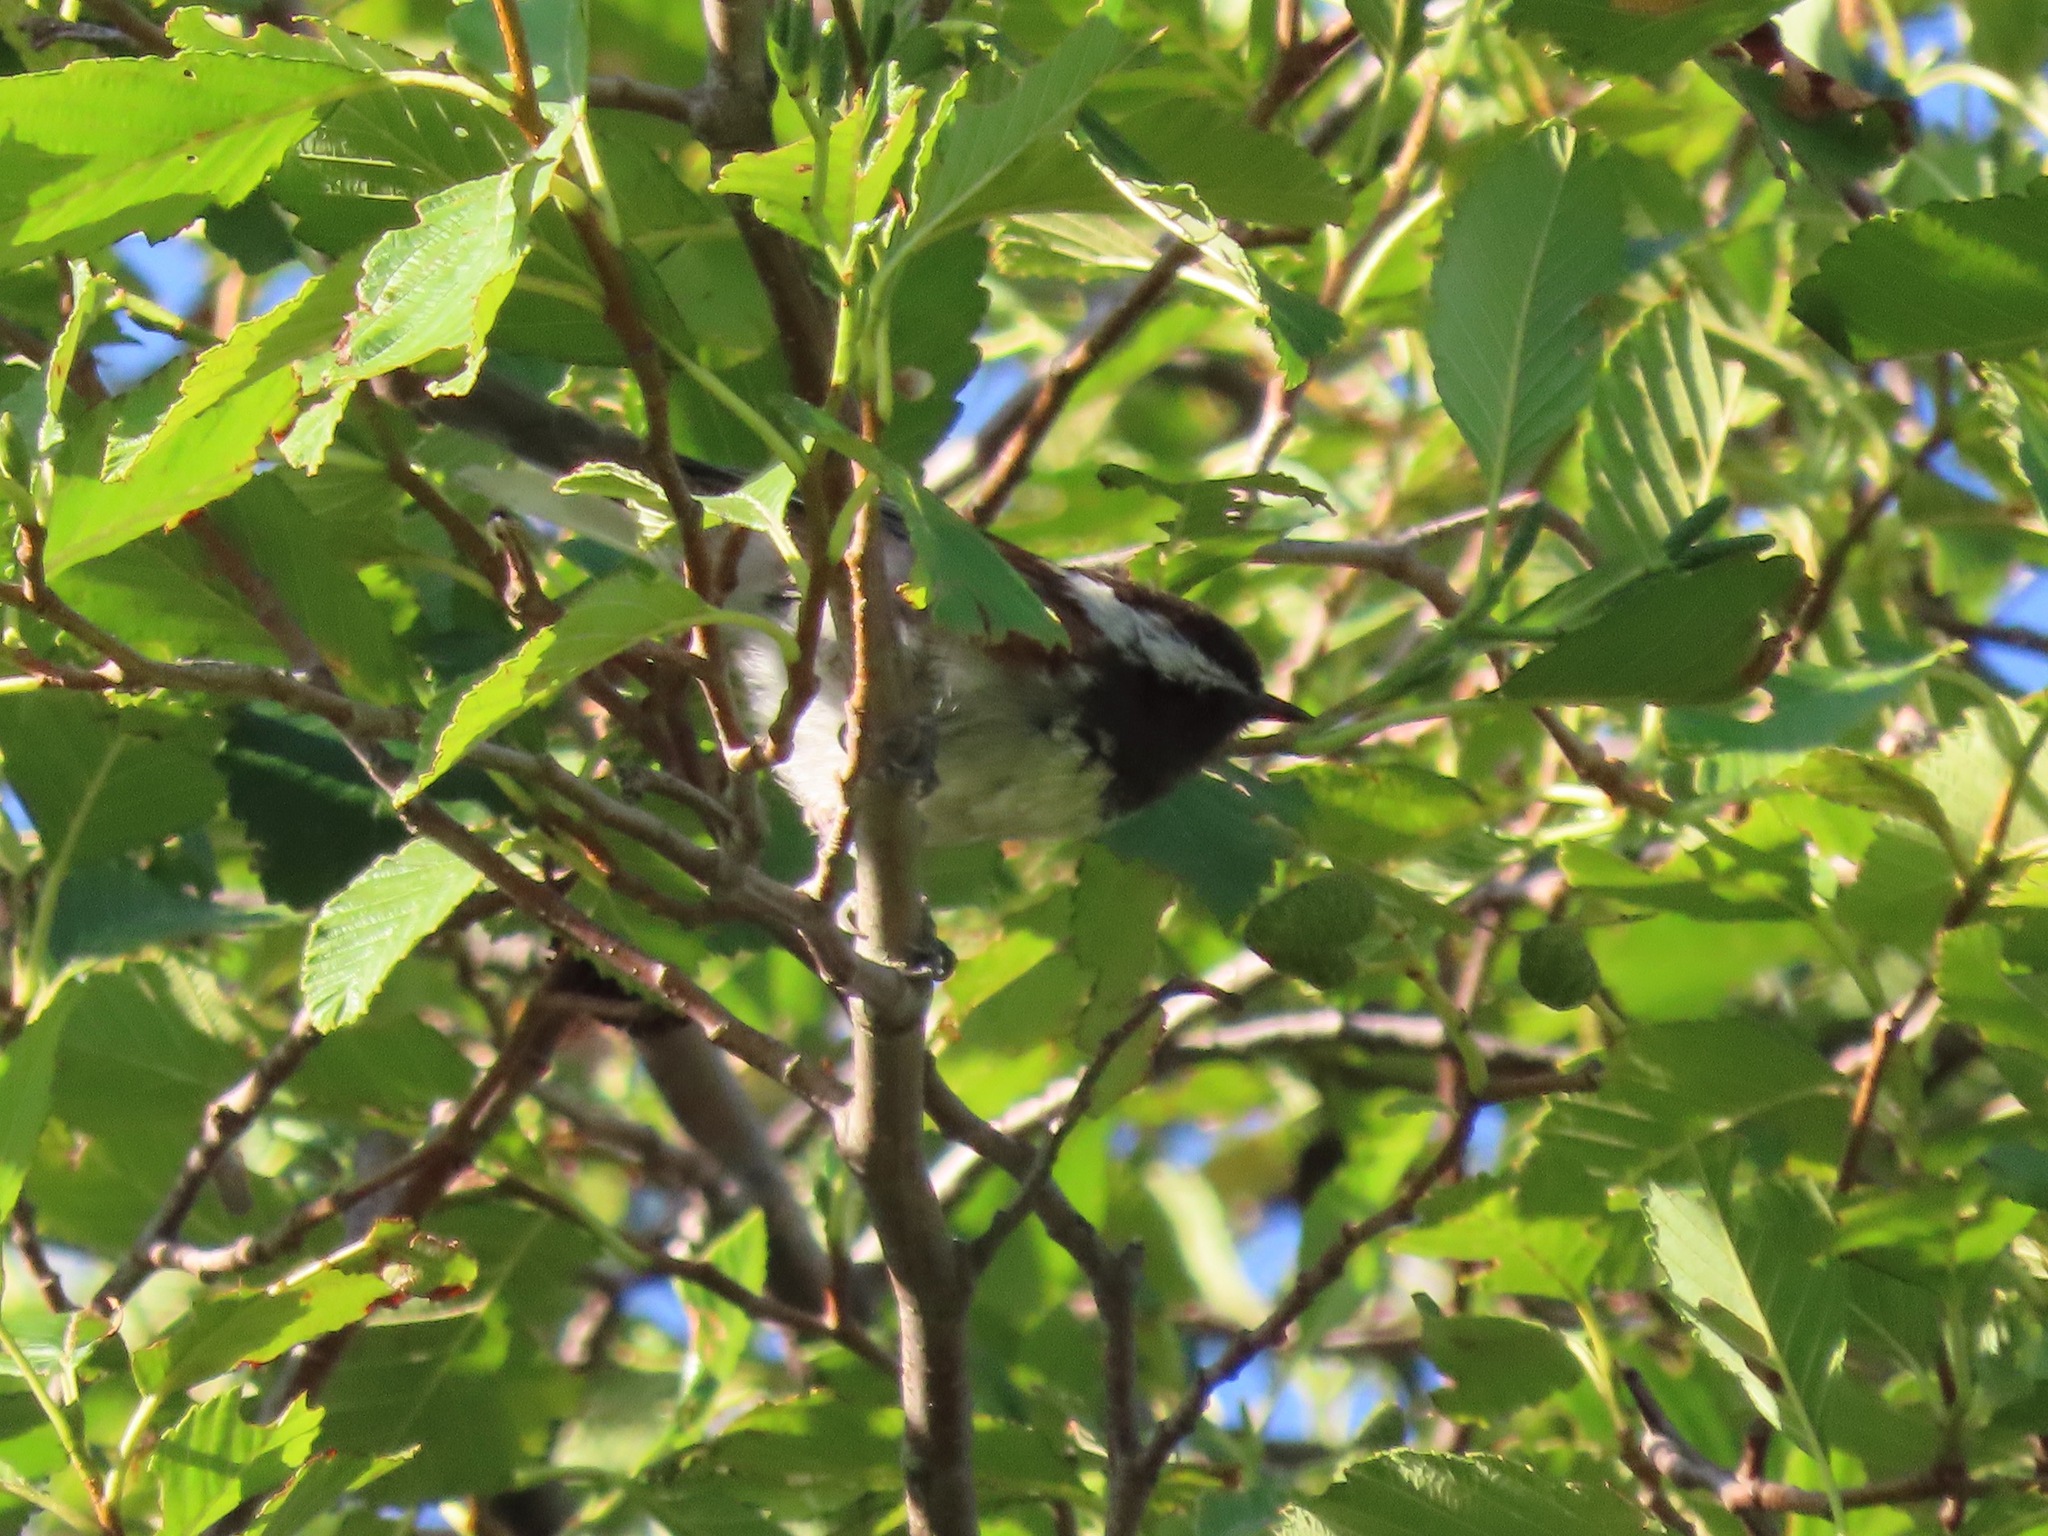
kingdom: Animalia
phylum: Chordata
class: Aves
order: Passeriformes
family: Paridae
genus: Poecile
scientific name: Poecile rufescens
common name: Chestnut-backed chickadee
